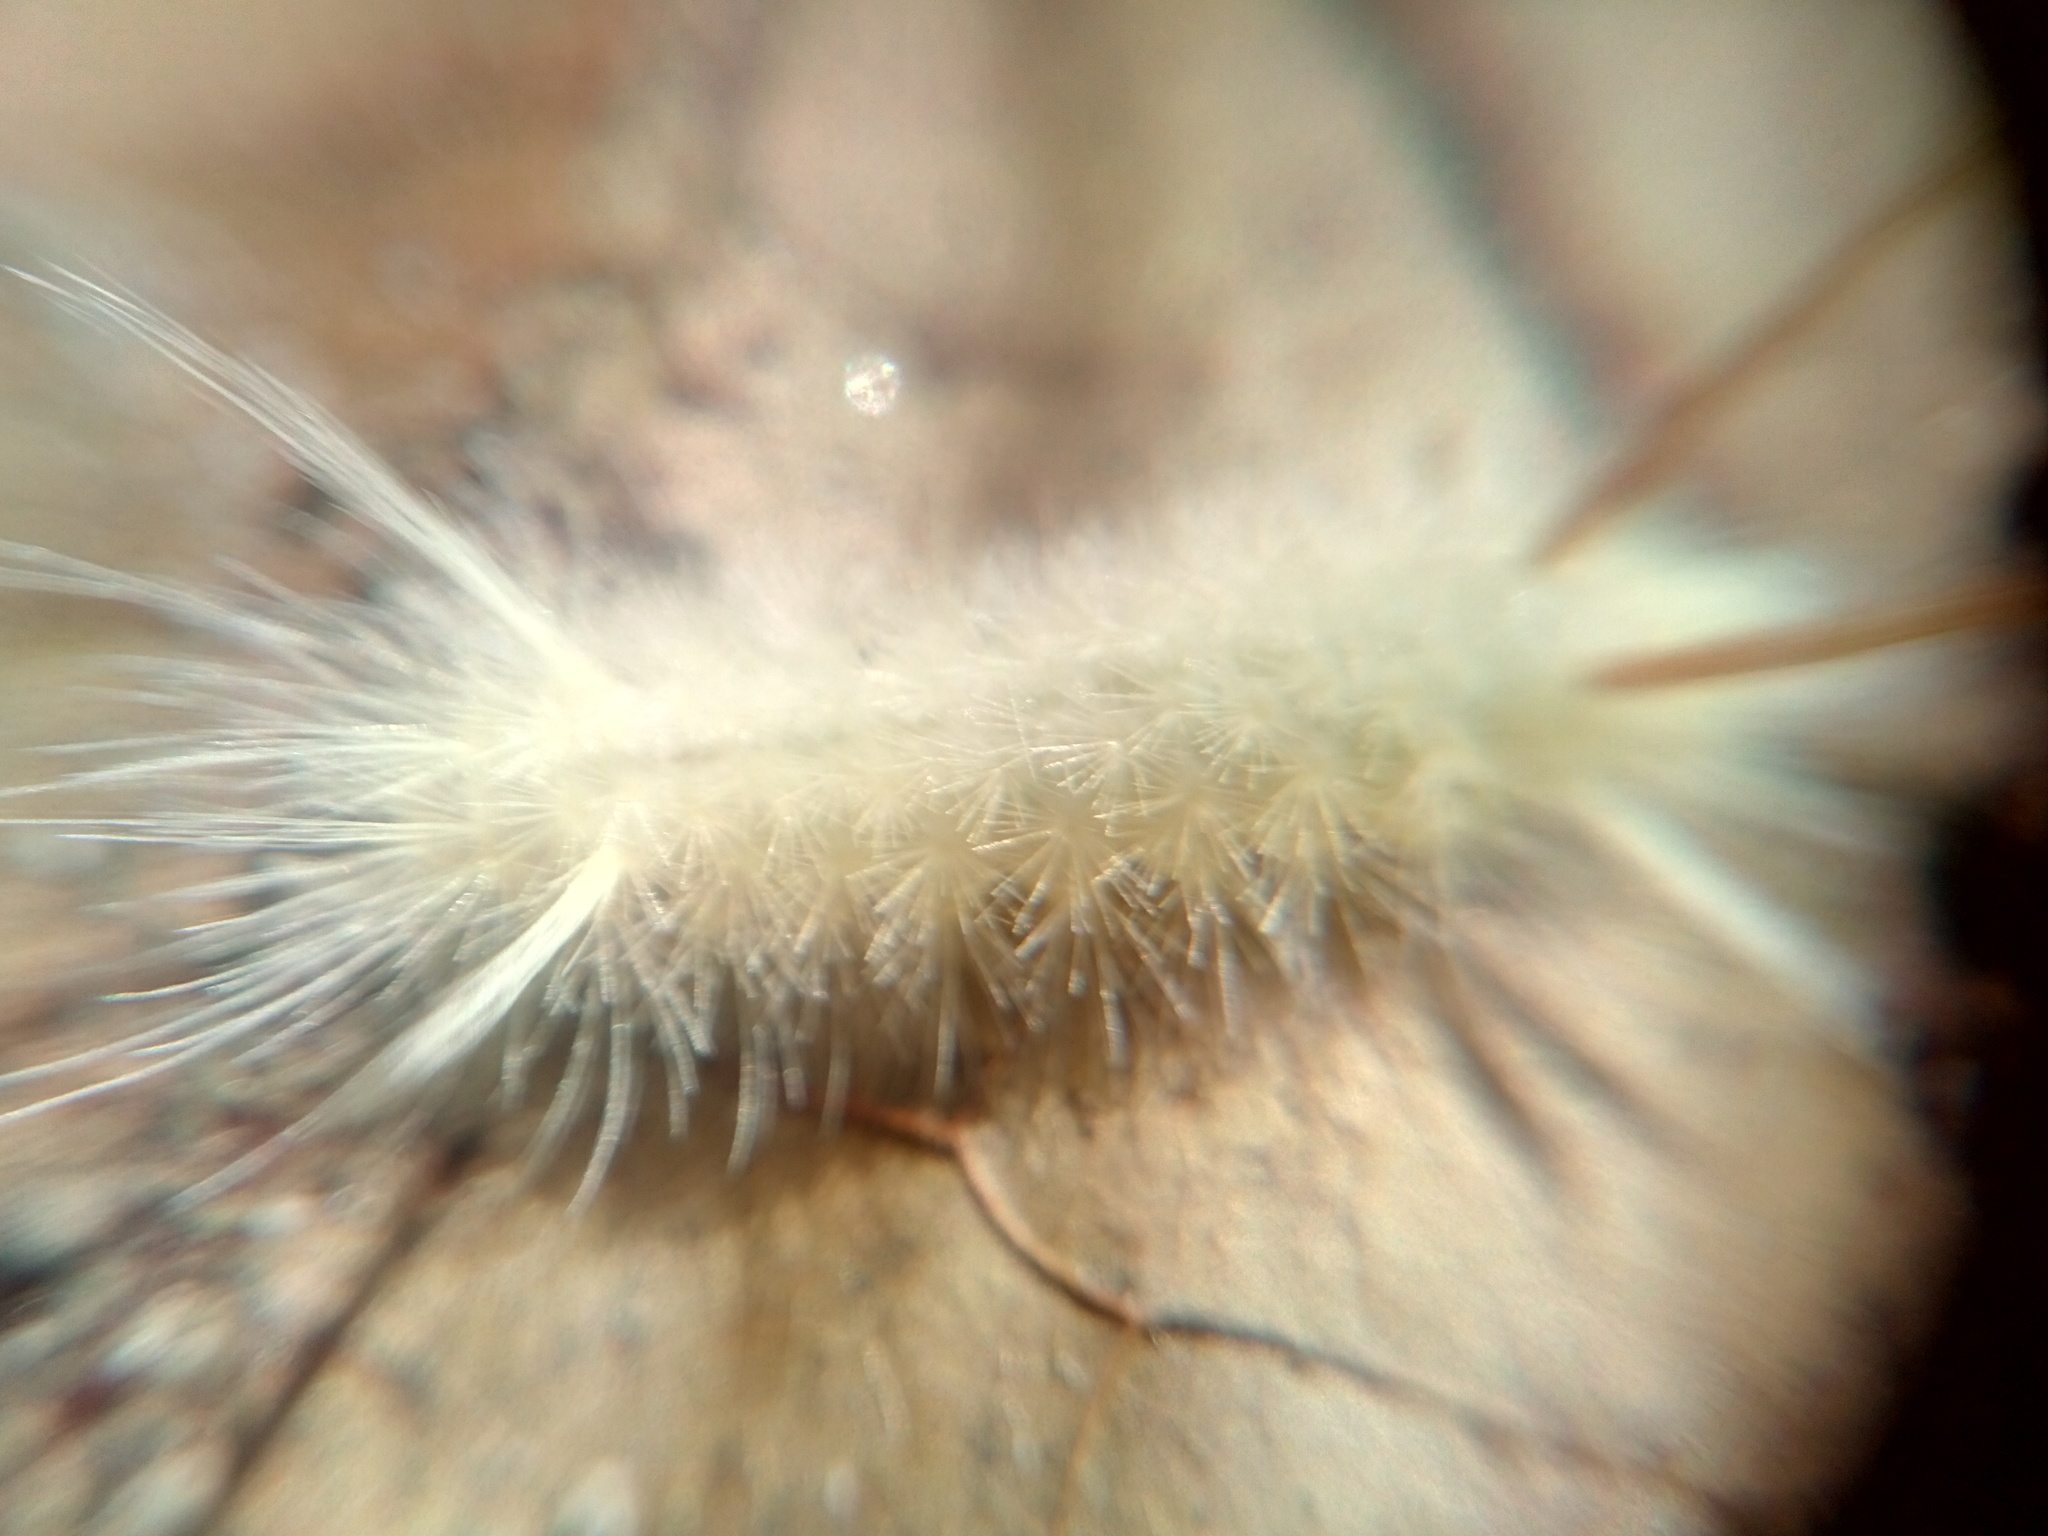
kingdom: Animalia
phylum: Arthropoda
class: Insecta
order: Lepidoptera
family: Erebidae
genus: Halysidota
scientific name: Halysidota harrisii
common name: Sycamore tussock moth
